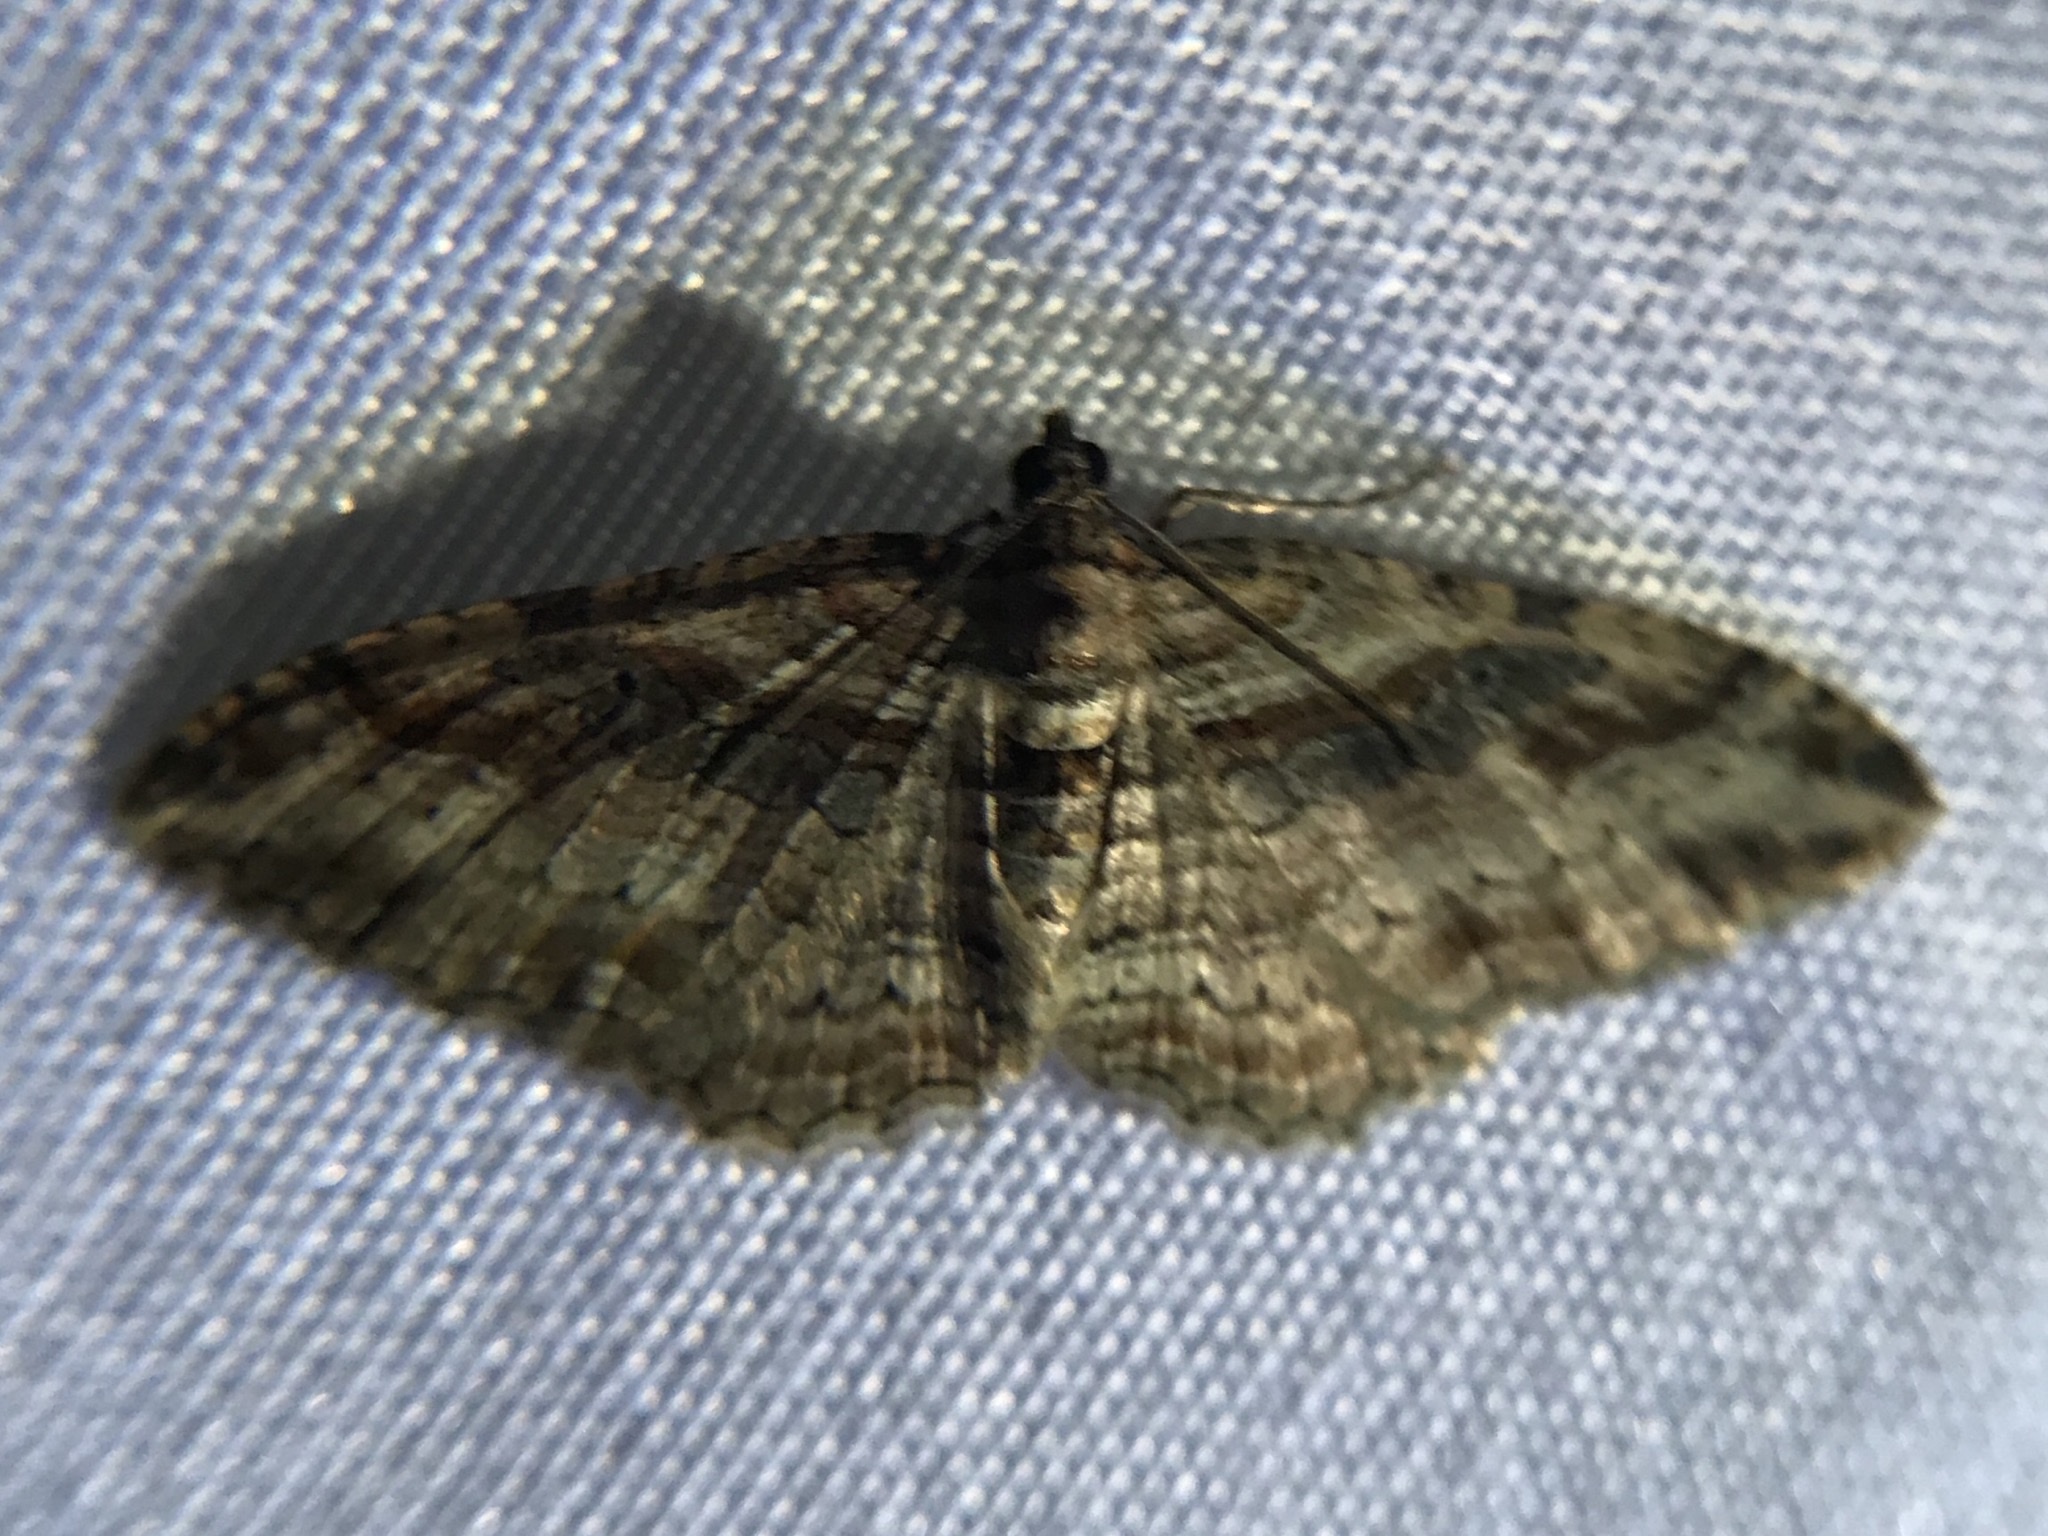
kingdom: Animalia
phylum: Arthropoda
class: Insecta
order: Lepidoptera
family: Geometridae
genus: Costaconvexa
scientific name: Costaconvexa centrostrigaria
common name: Bent-line carpet
